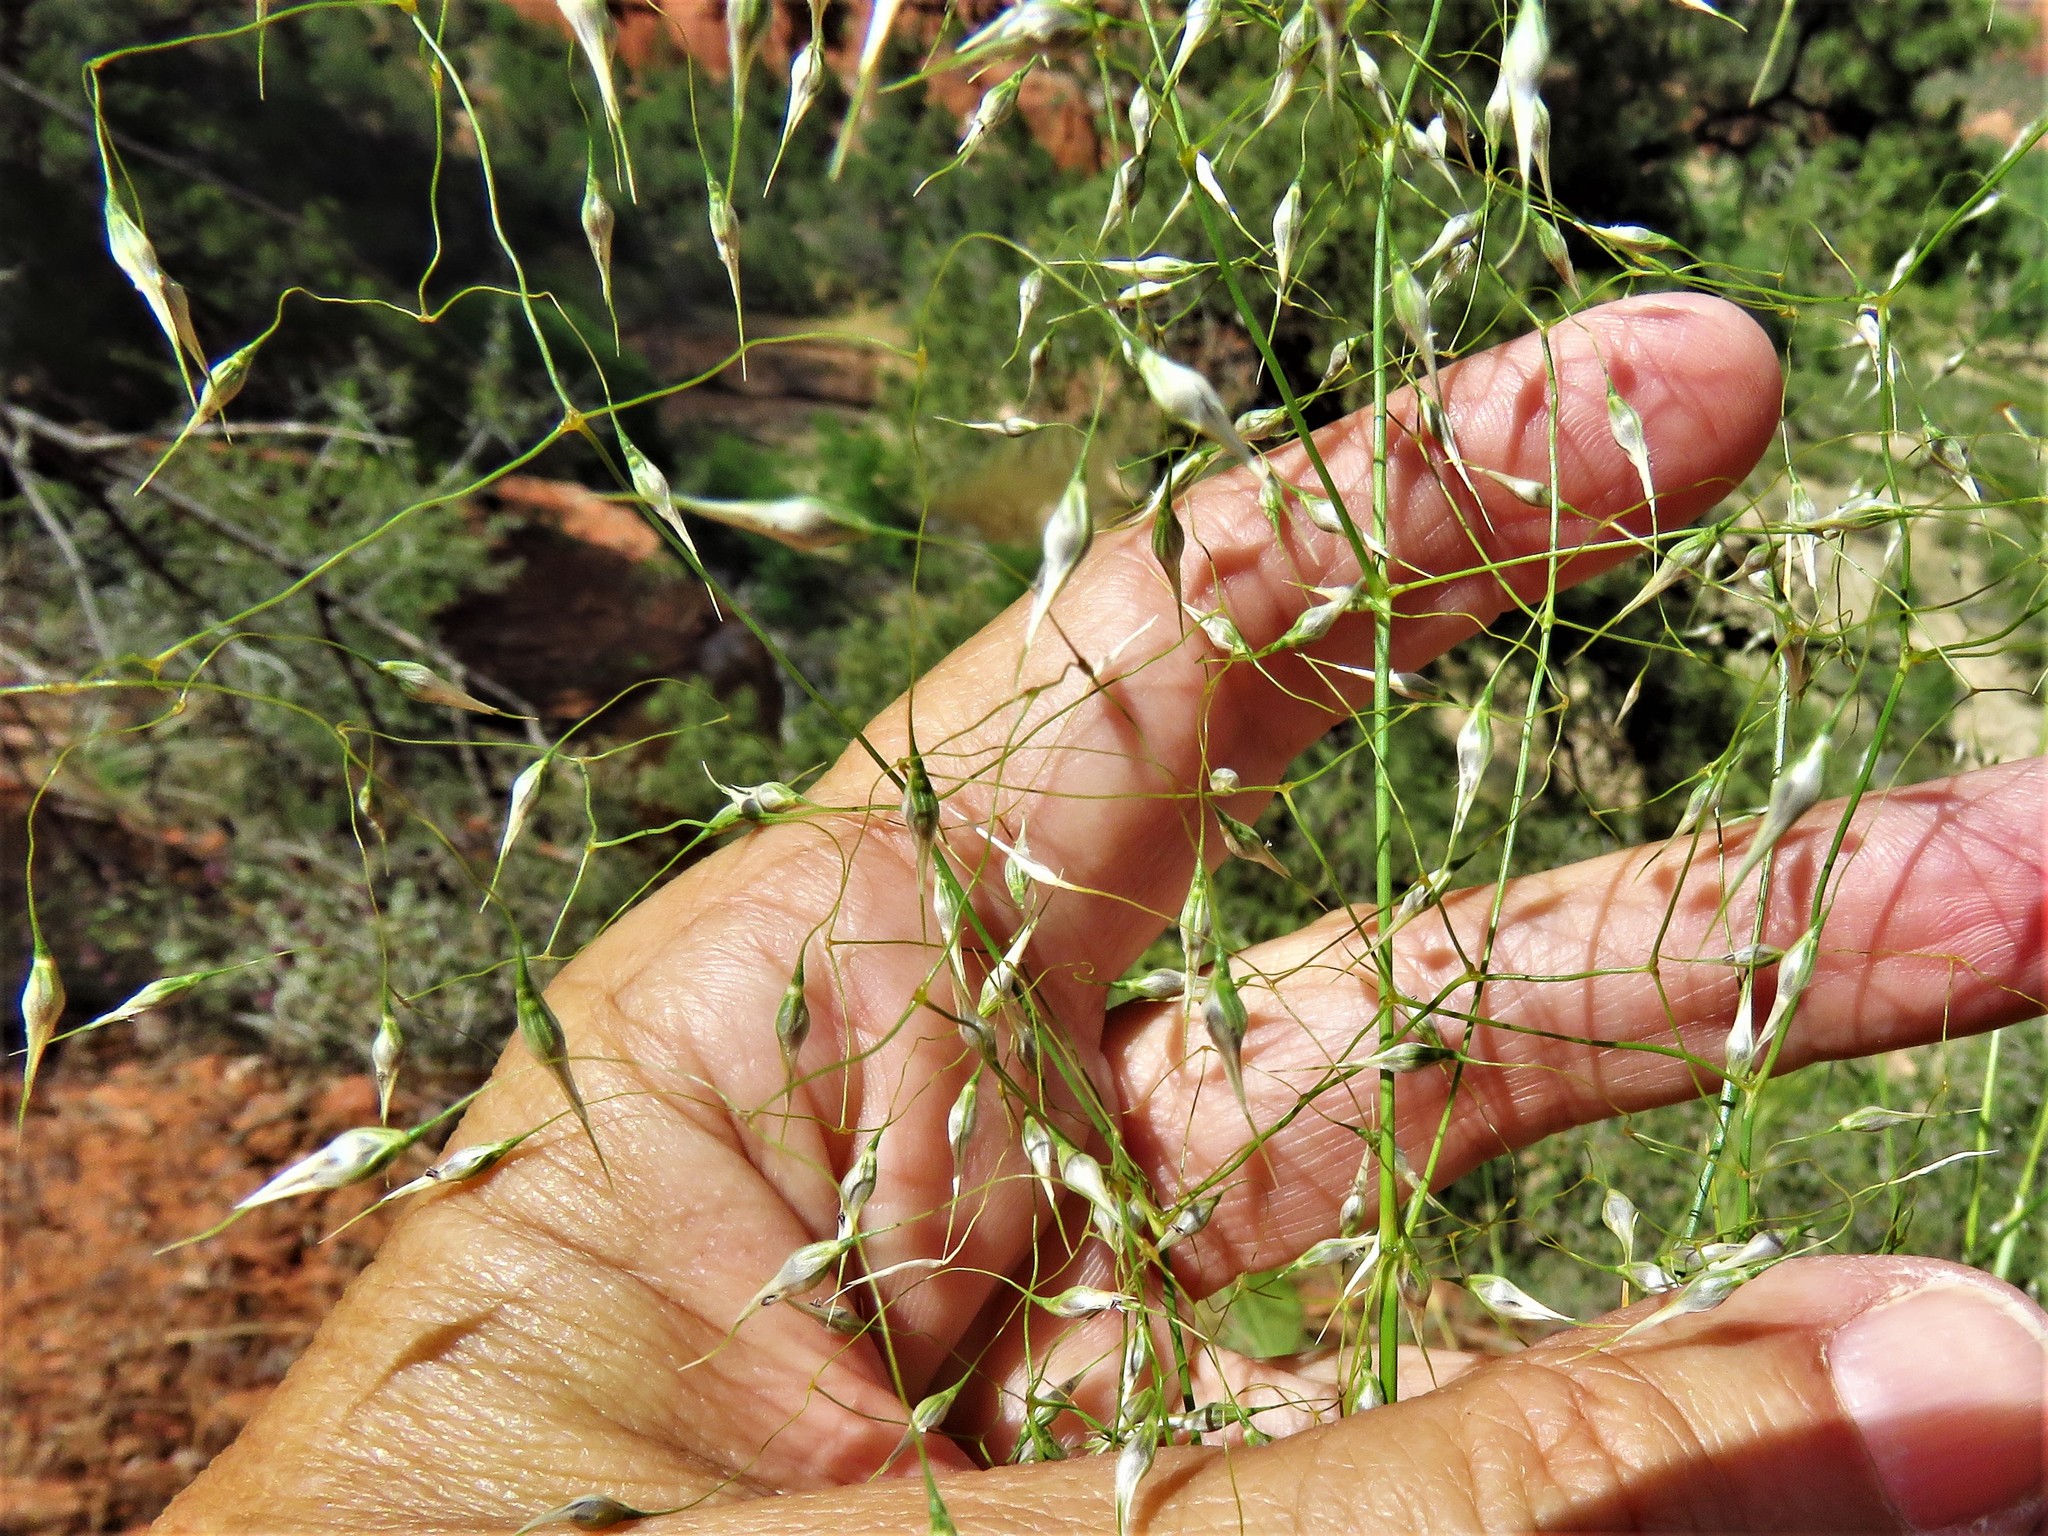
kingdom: Plantae
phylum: Tracheophyta
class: Liliopsida
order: Poales
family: Poaceae
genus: Eriocoma
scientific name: Eriocoma hymenoides
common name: Indian mountain ricegrass
